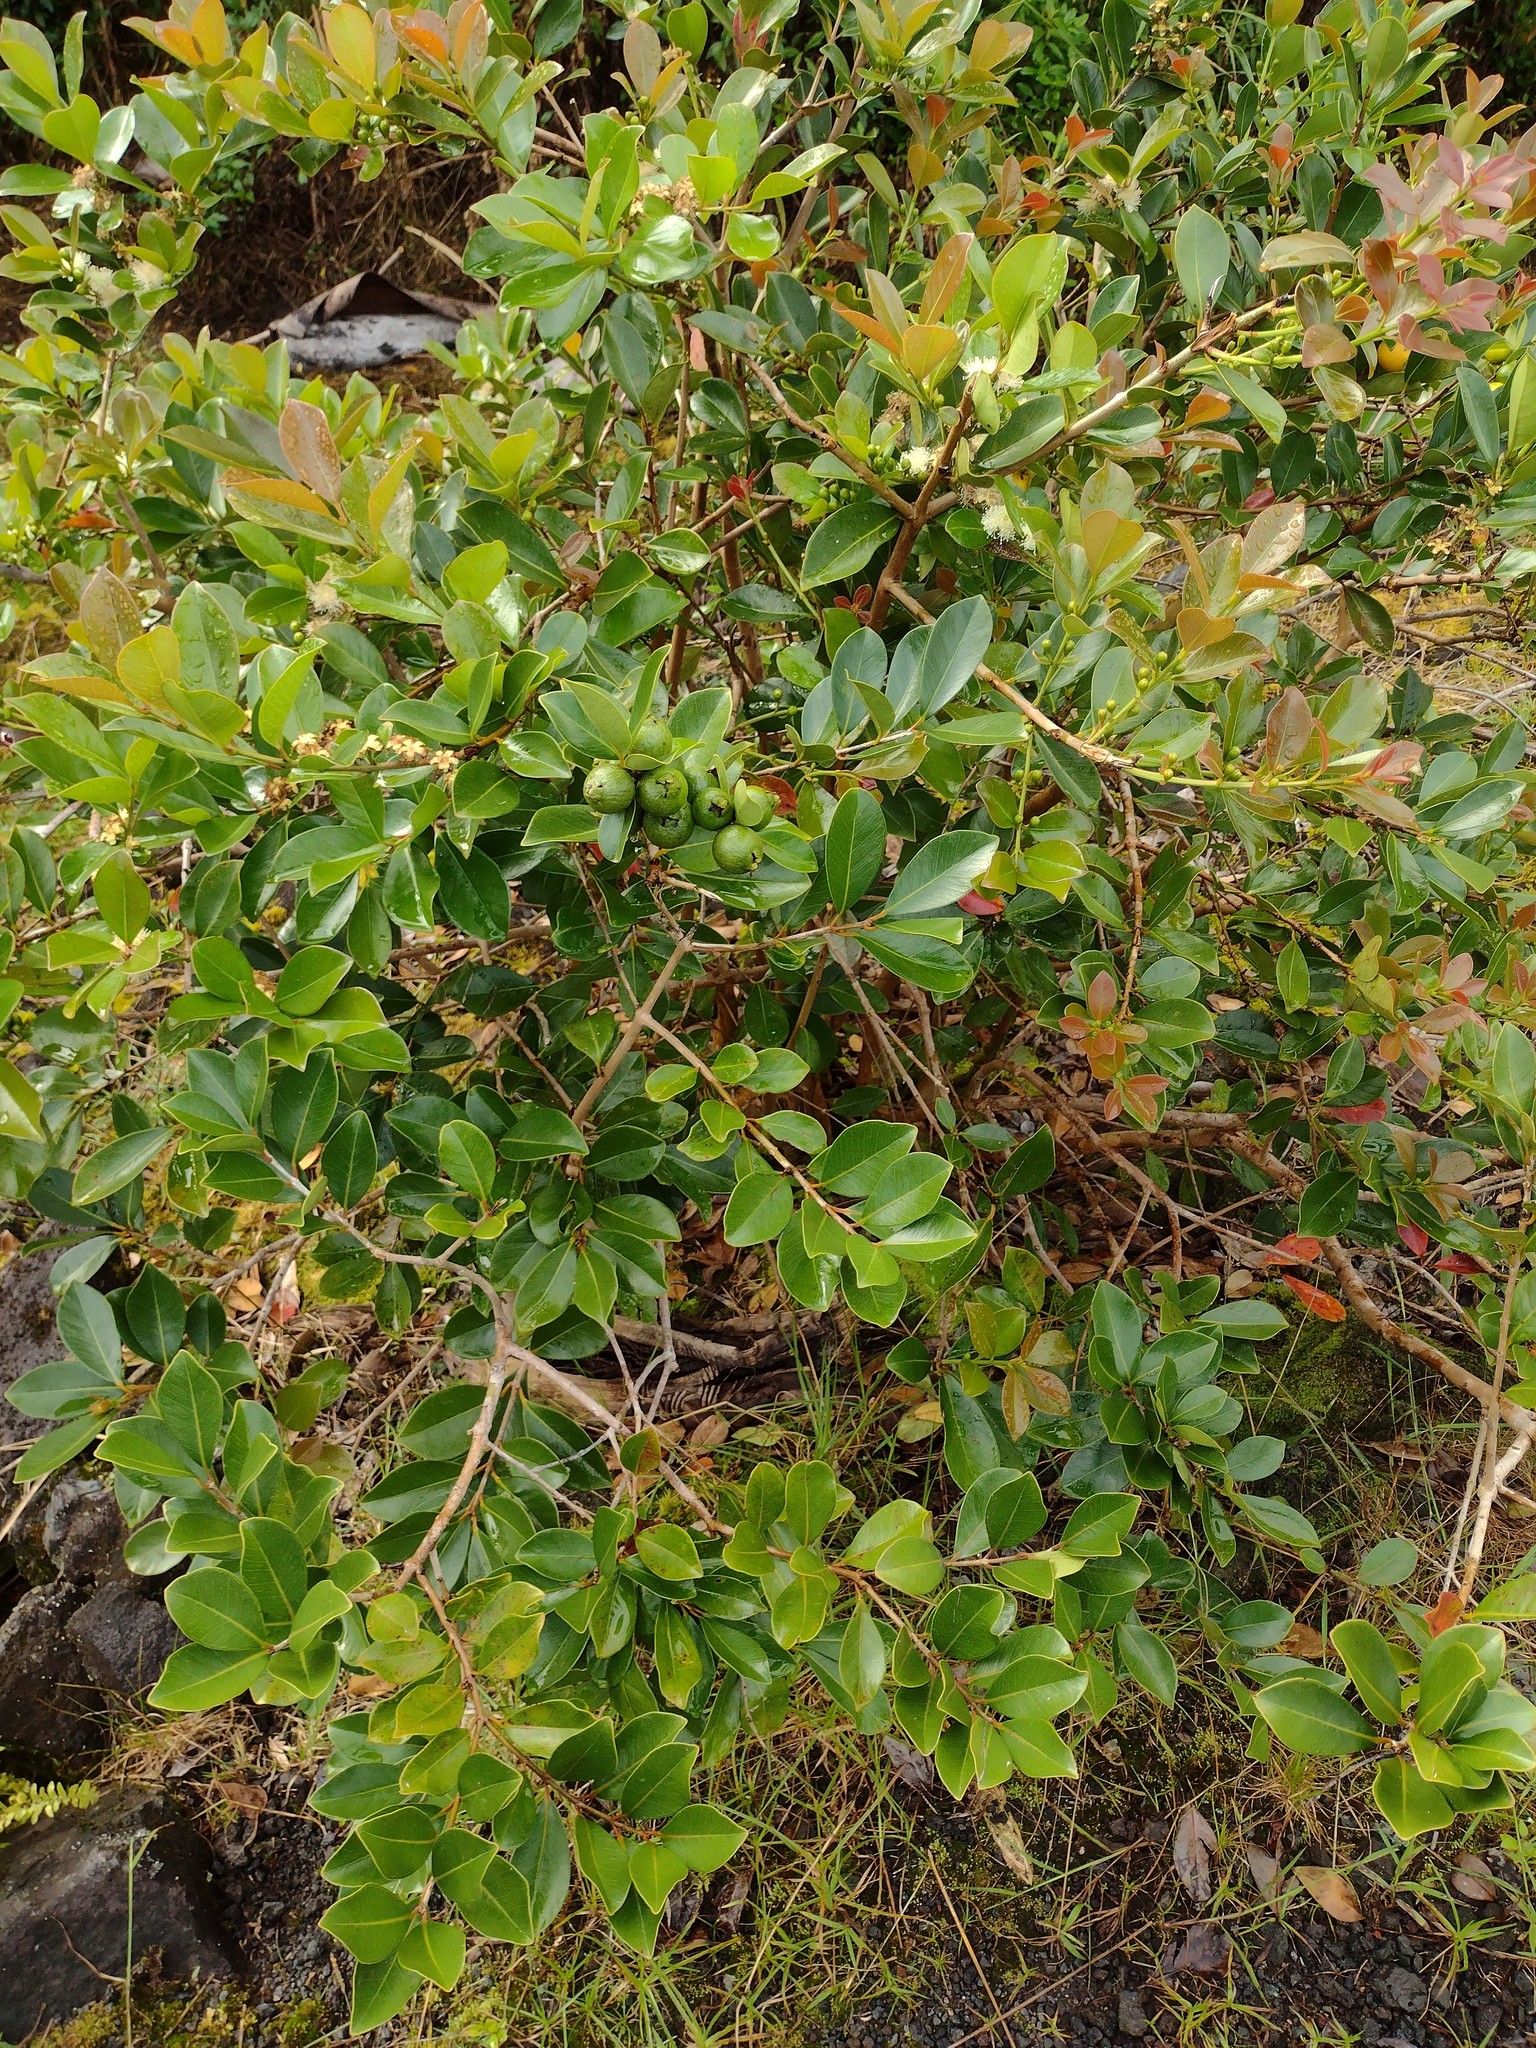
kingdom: Plantae
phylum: Tracheophyta
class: Magnoliopsida
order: Myrtales
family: Myrtaceae
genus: Psidium
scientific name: Psidium cattleianum
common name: Strawberry guava
